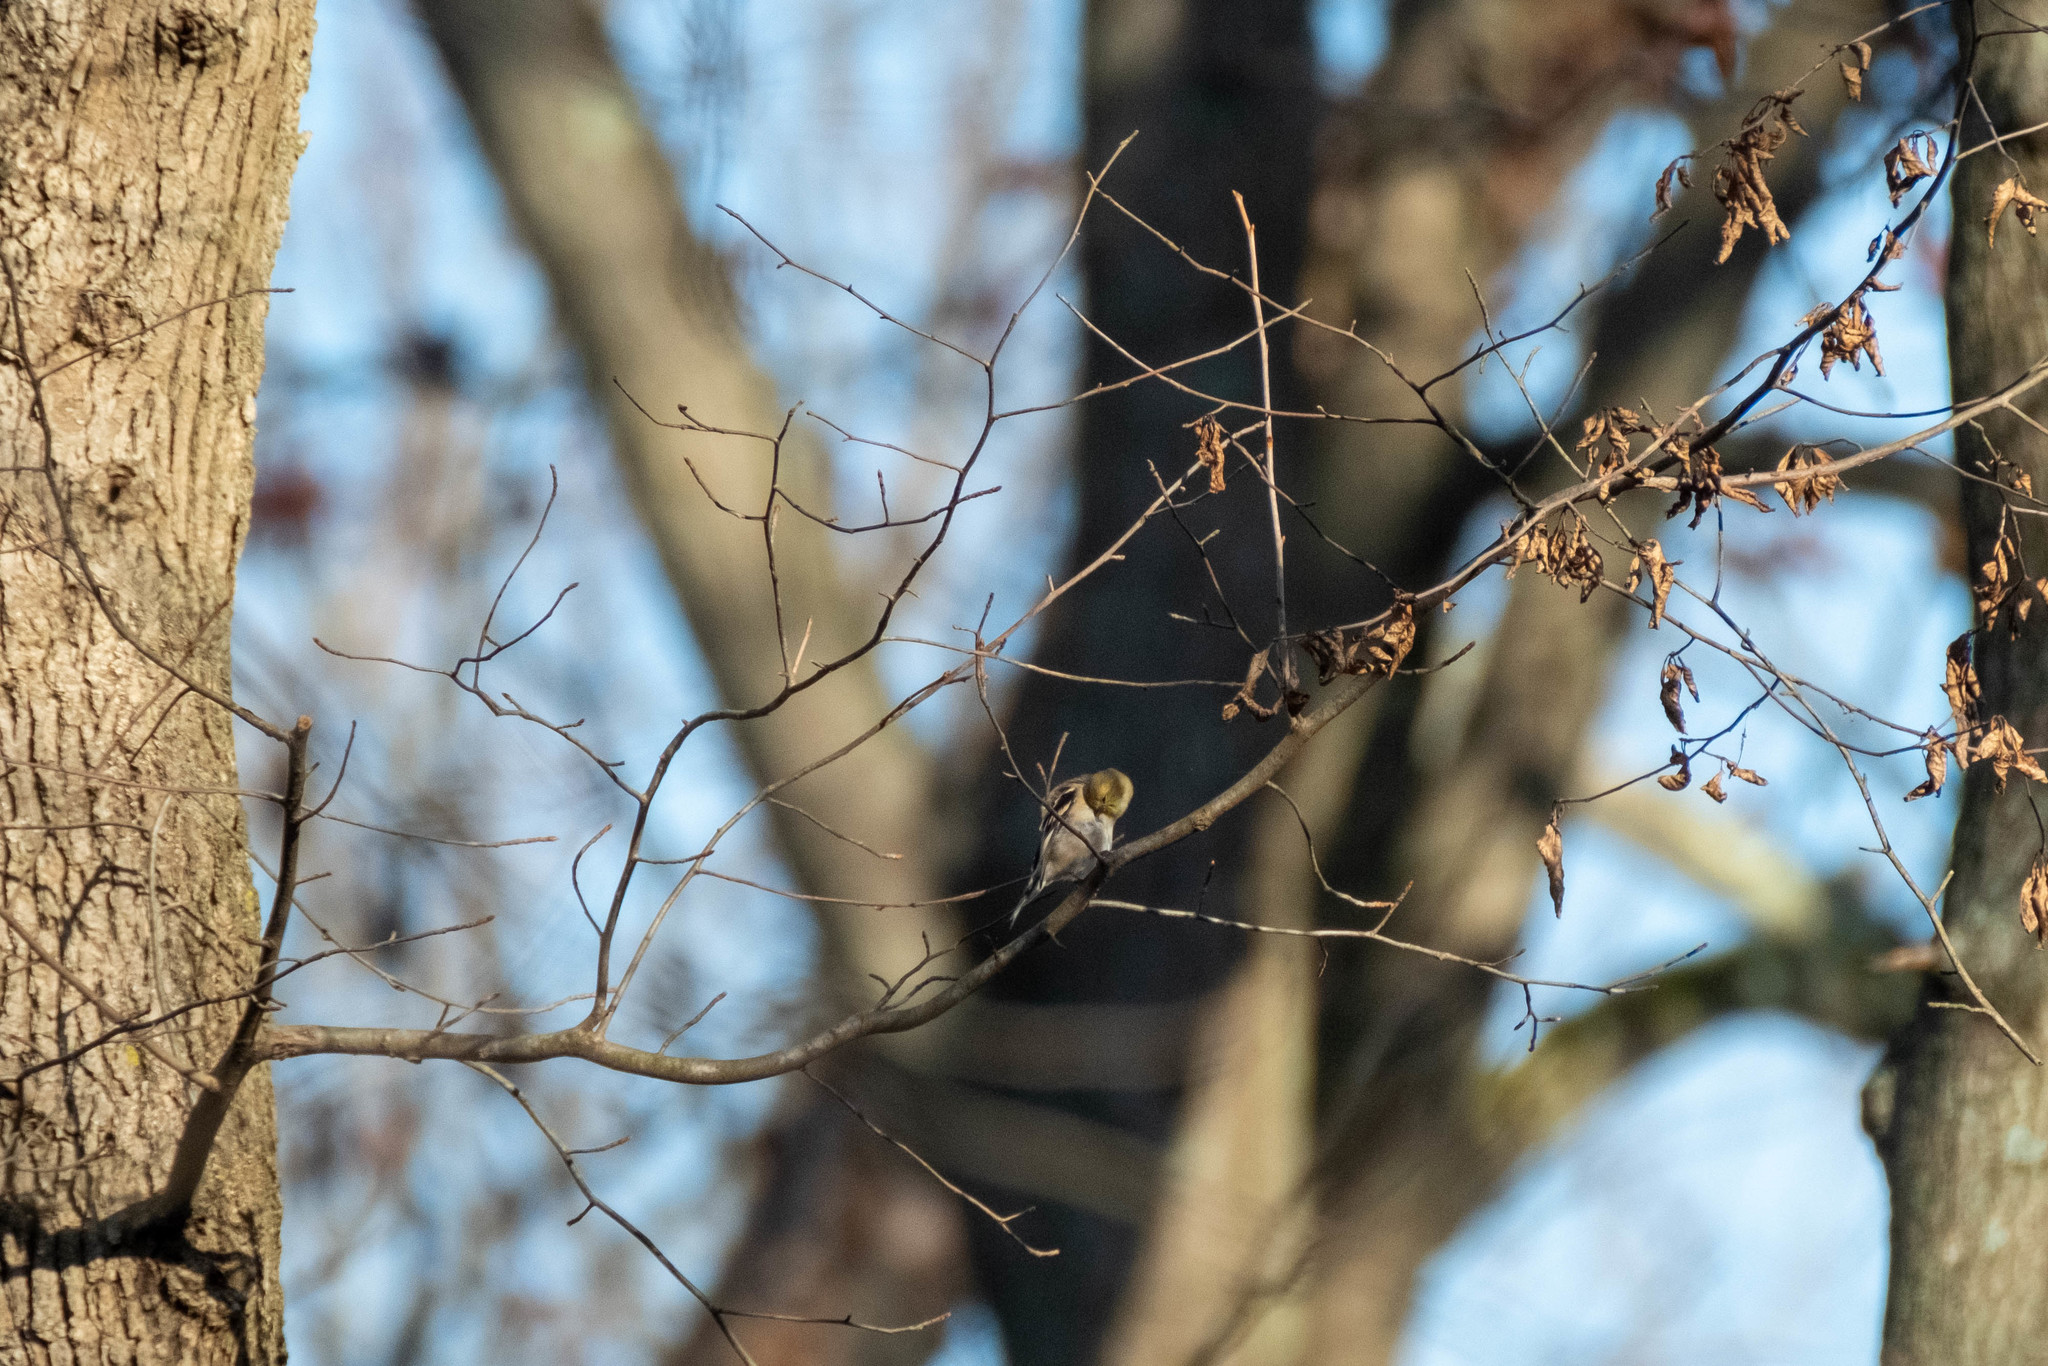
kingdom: Animalia
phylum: Chordata
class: Aves
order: Passeriformes
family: Fringillidae
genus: Spinus
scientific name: Spinus tristis
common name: American goldfinch
